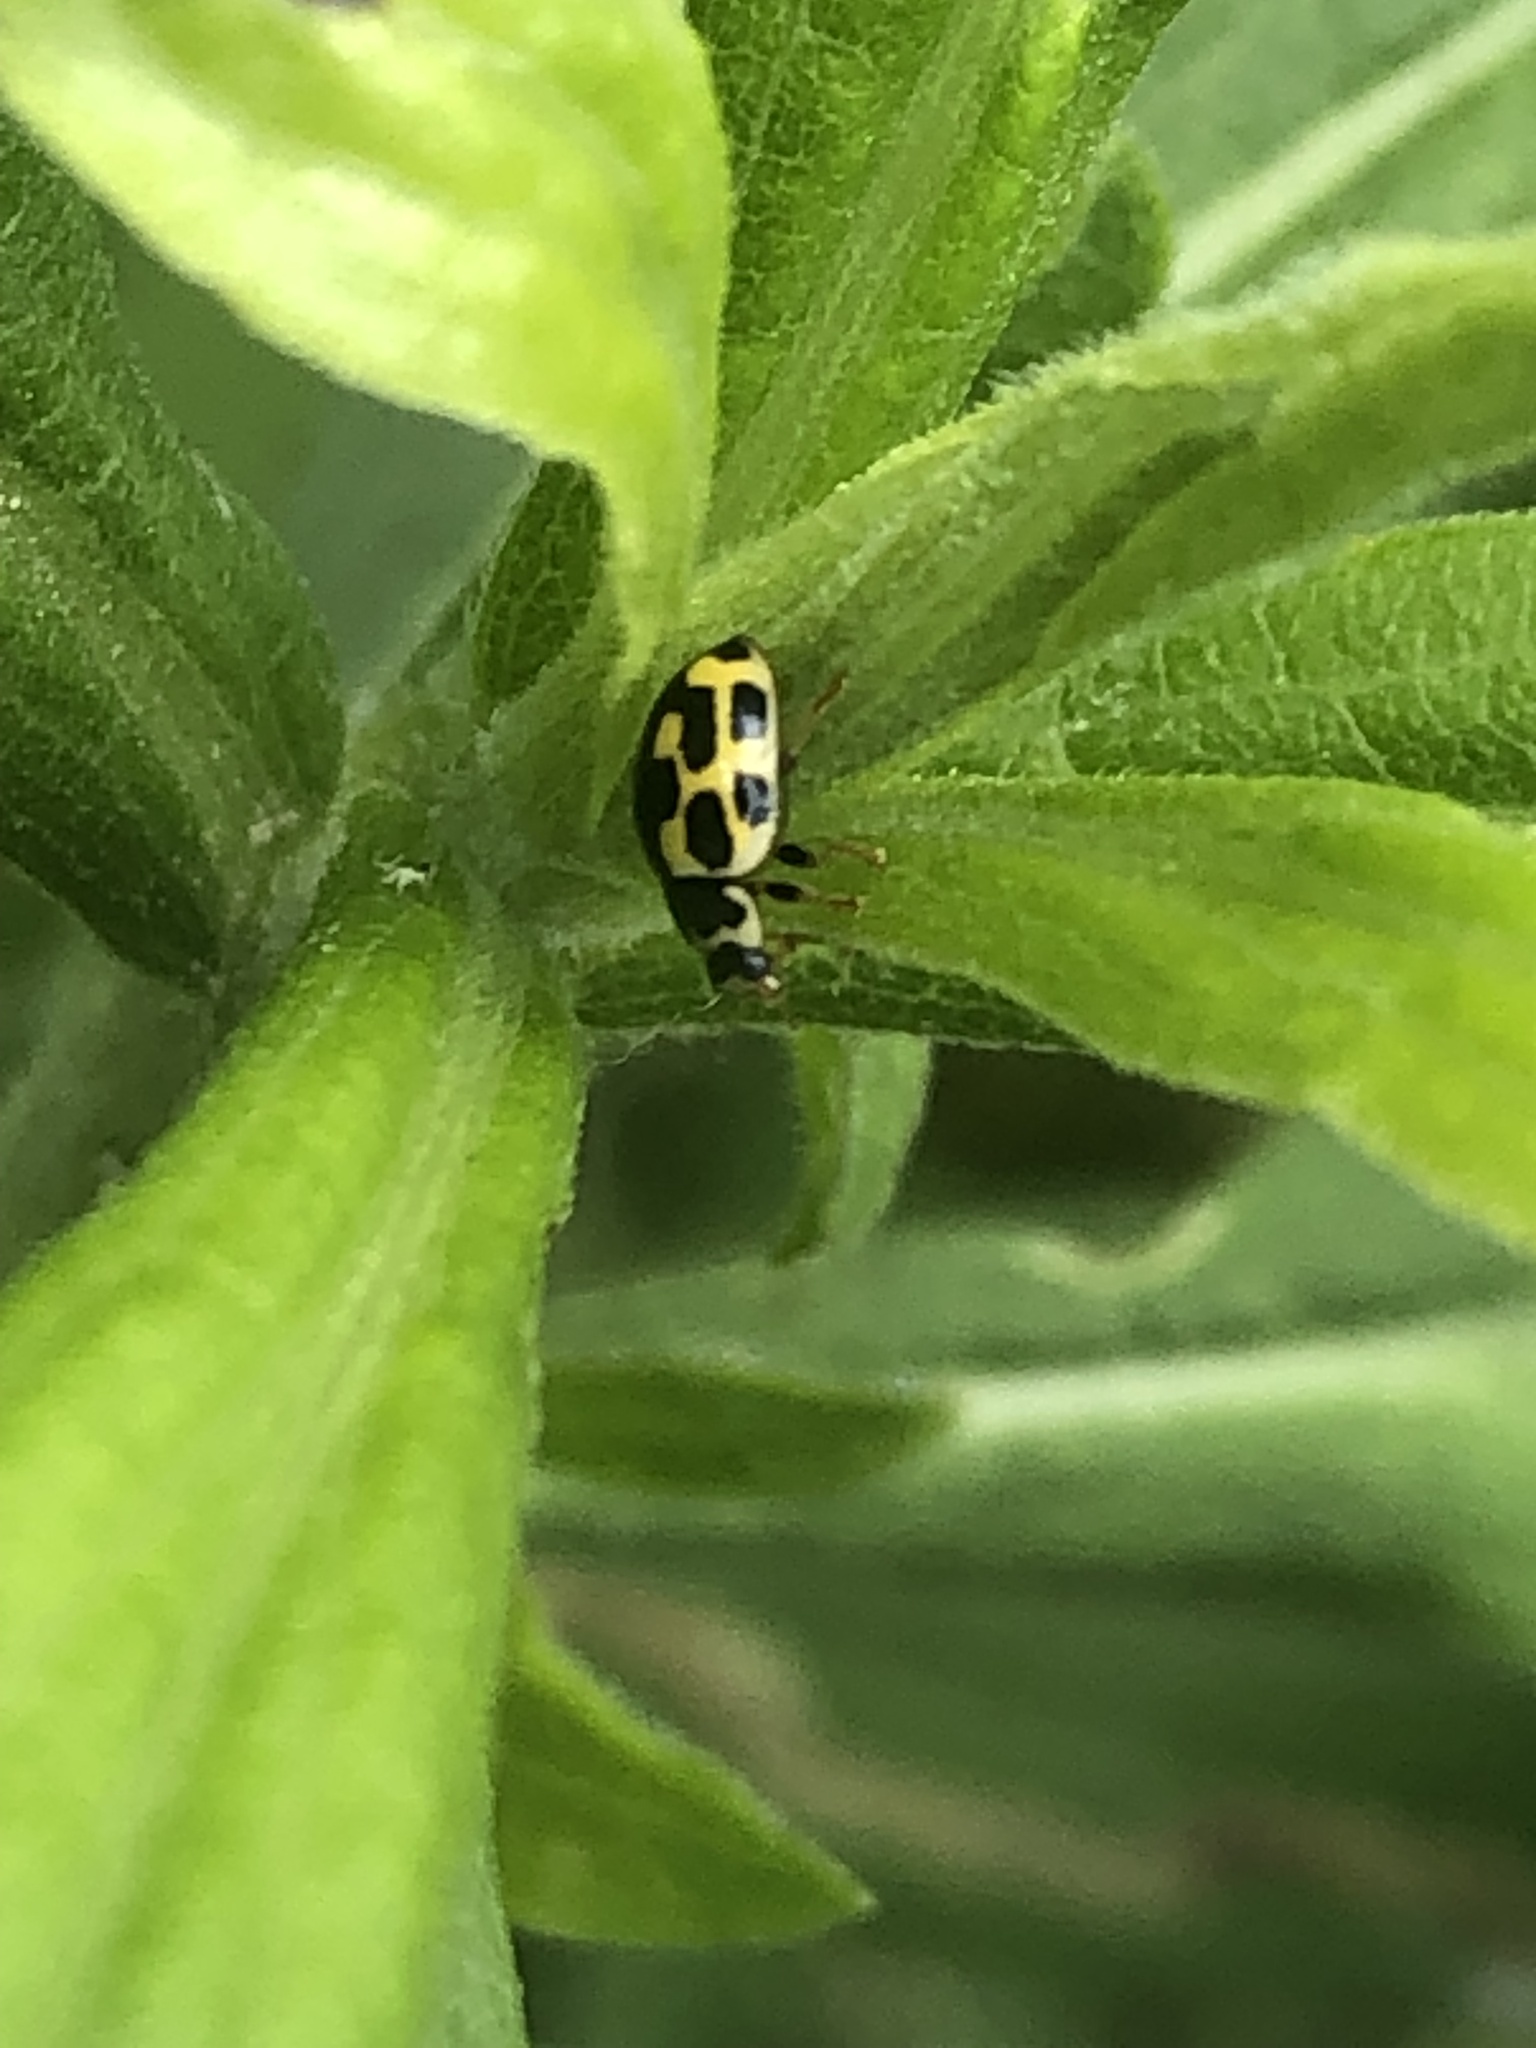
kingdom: Animalia
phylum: Arthropoda
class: Insecta
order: Coleoptera
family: Coccinellidae
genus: Propylaea
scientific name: Propylaea quatuordecimpunctata
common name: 14-spotted ladybird beetle
